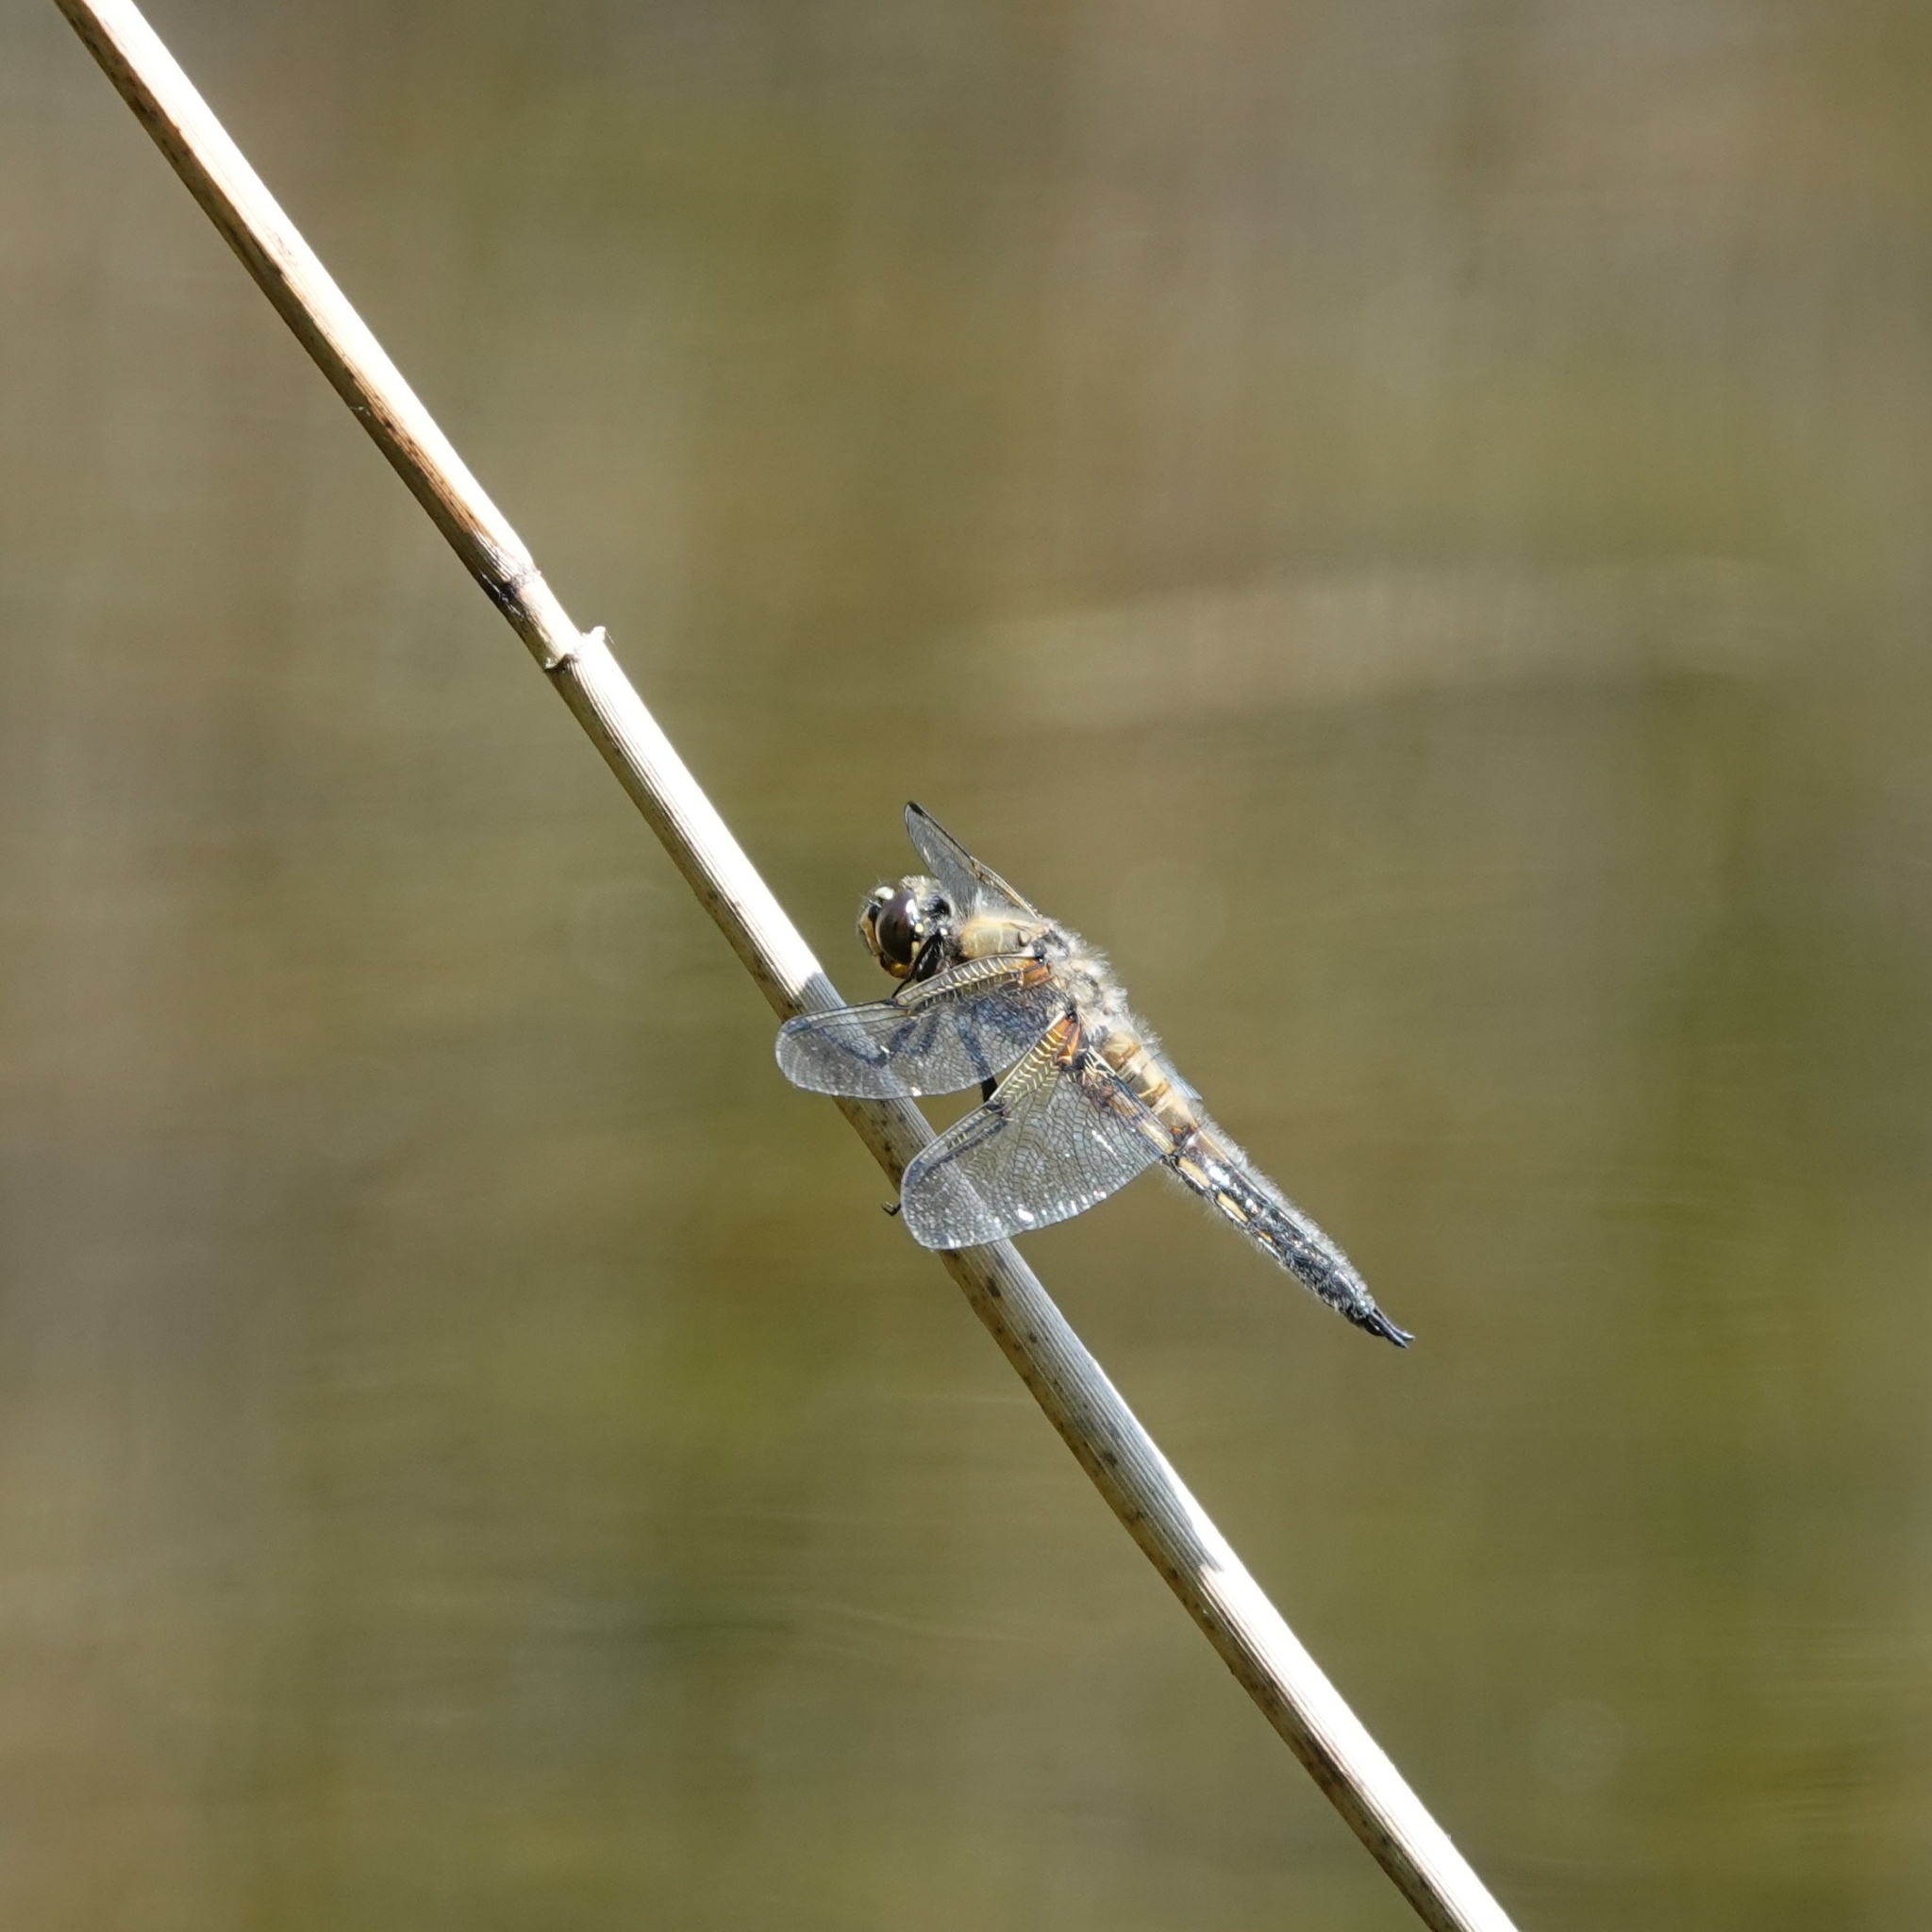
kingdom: Animalia
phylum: Arthropoda
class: Insecta
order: Odonata
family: Libellulidae
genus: Libellula
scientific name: Libellula quadrimaculata
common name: Four-spotted chaser
